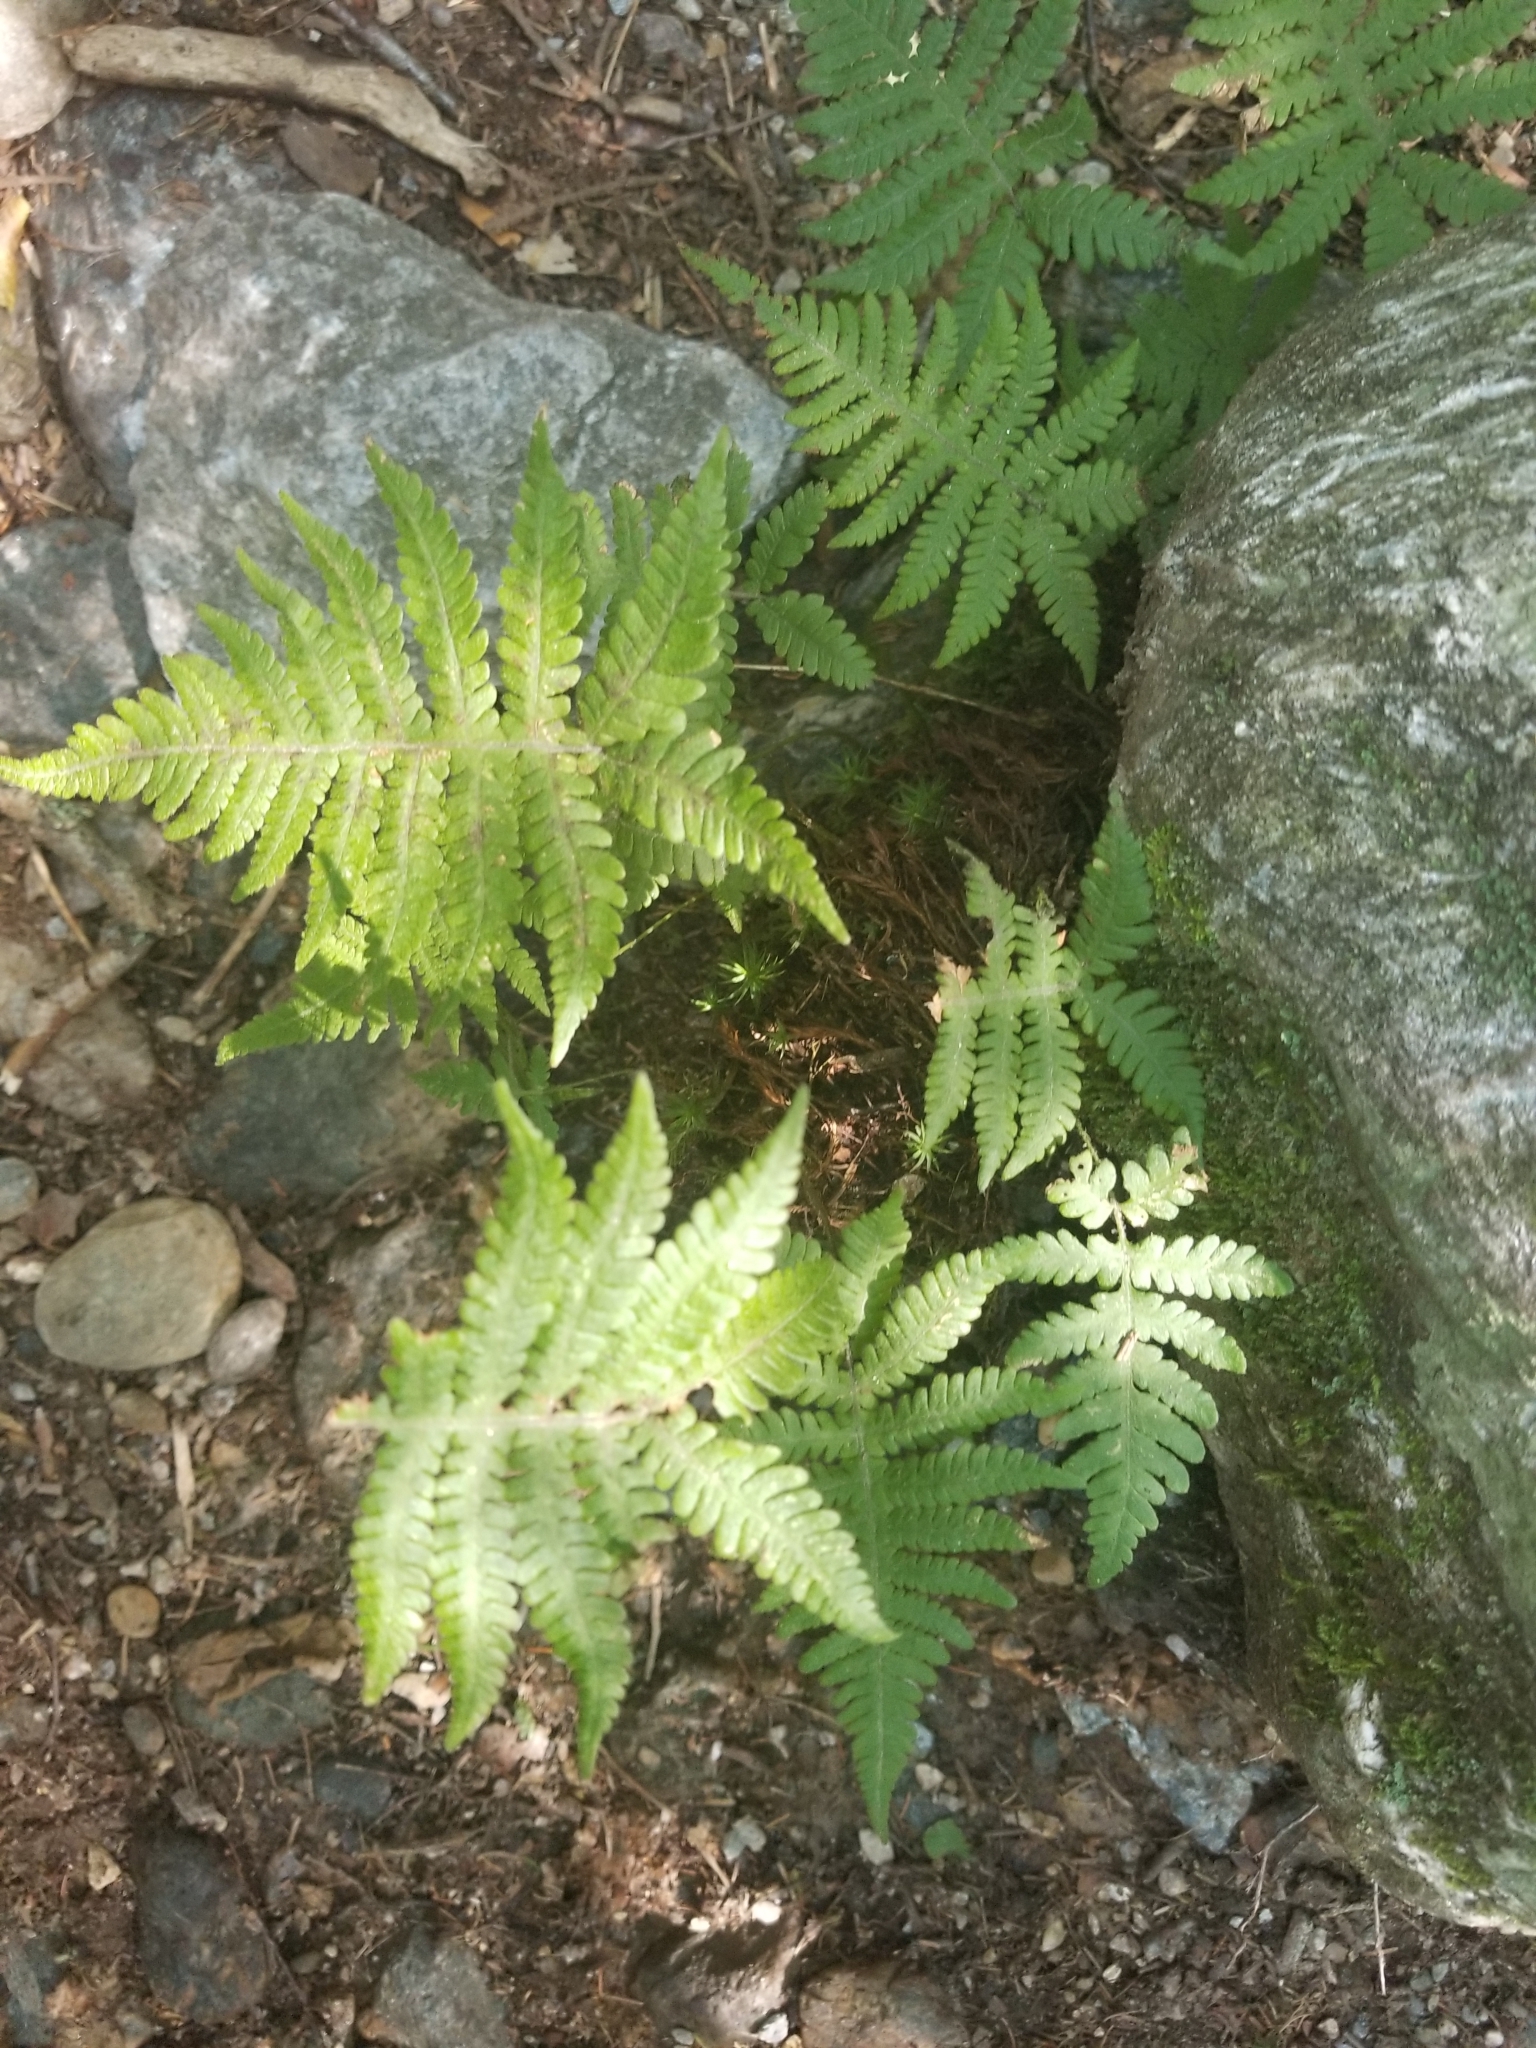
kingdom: Plantae
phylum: Tracheophyta
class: Polypodiopsida
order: Polypodiales
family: Thelypteridaceae
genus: Phegopteris
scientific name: Phegopteris connectilis
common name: Beech fern
